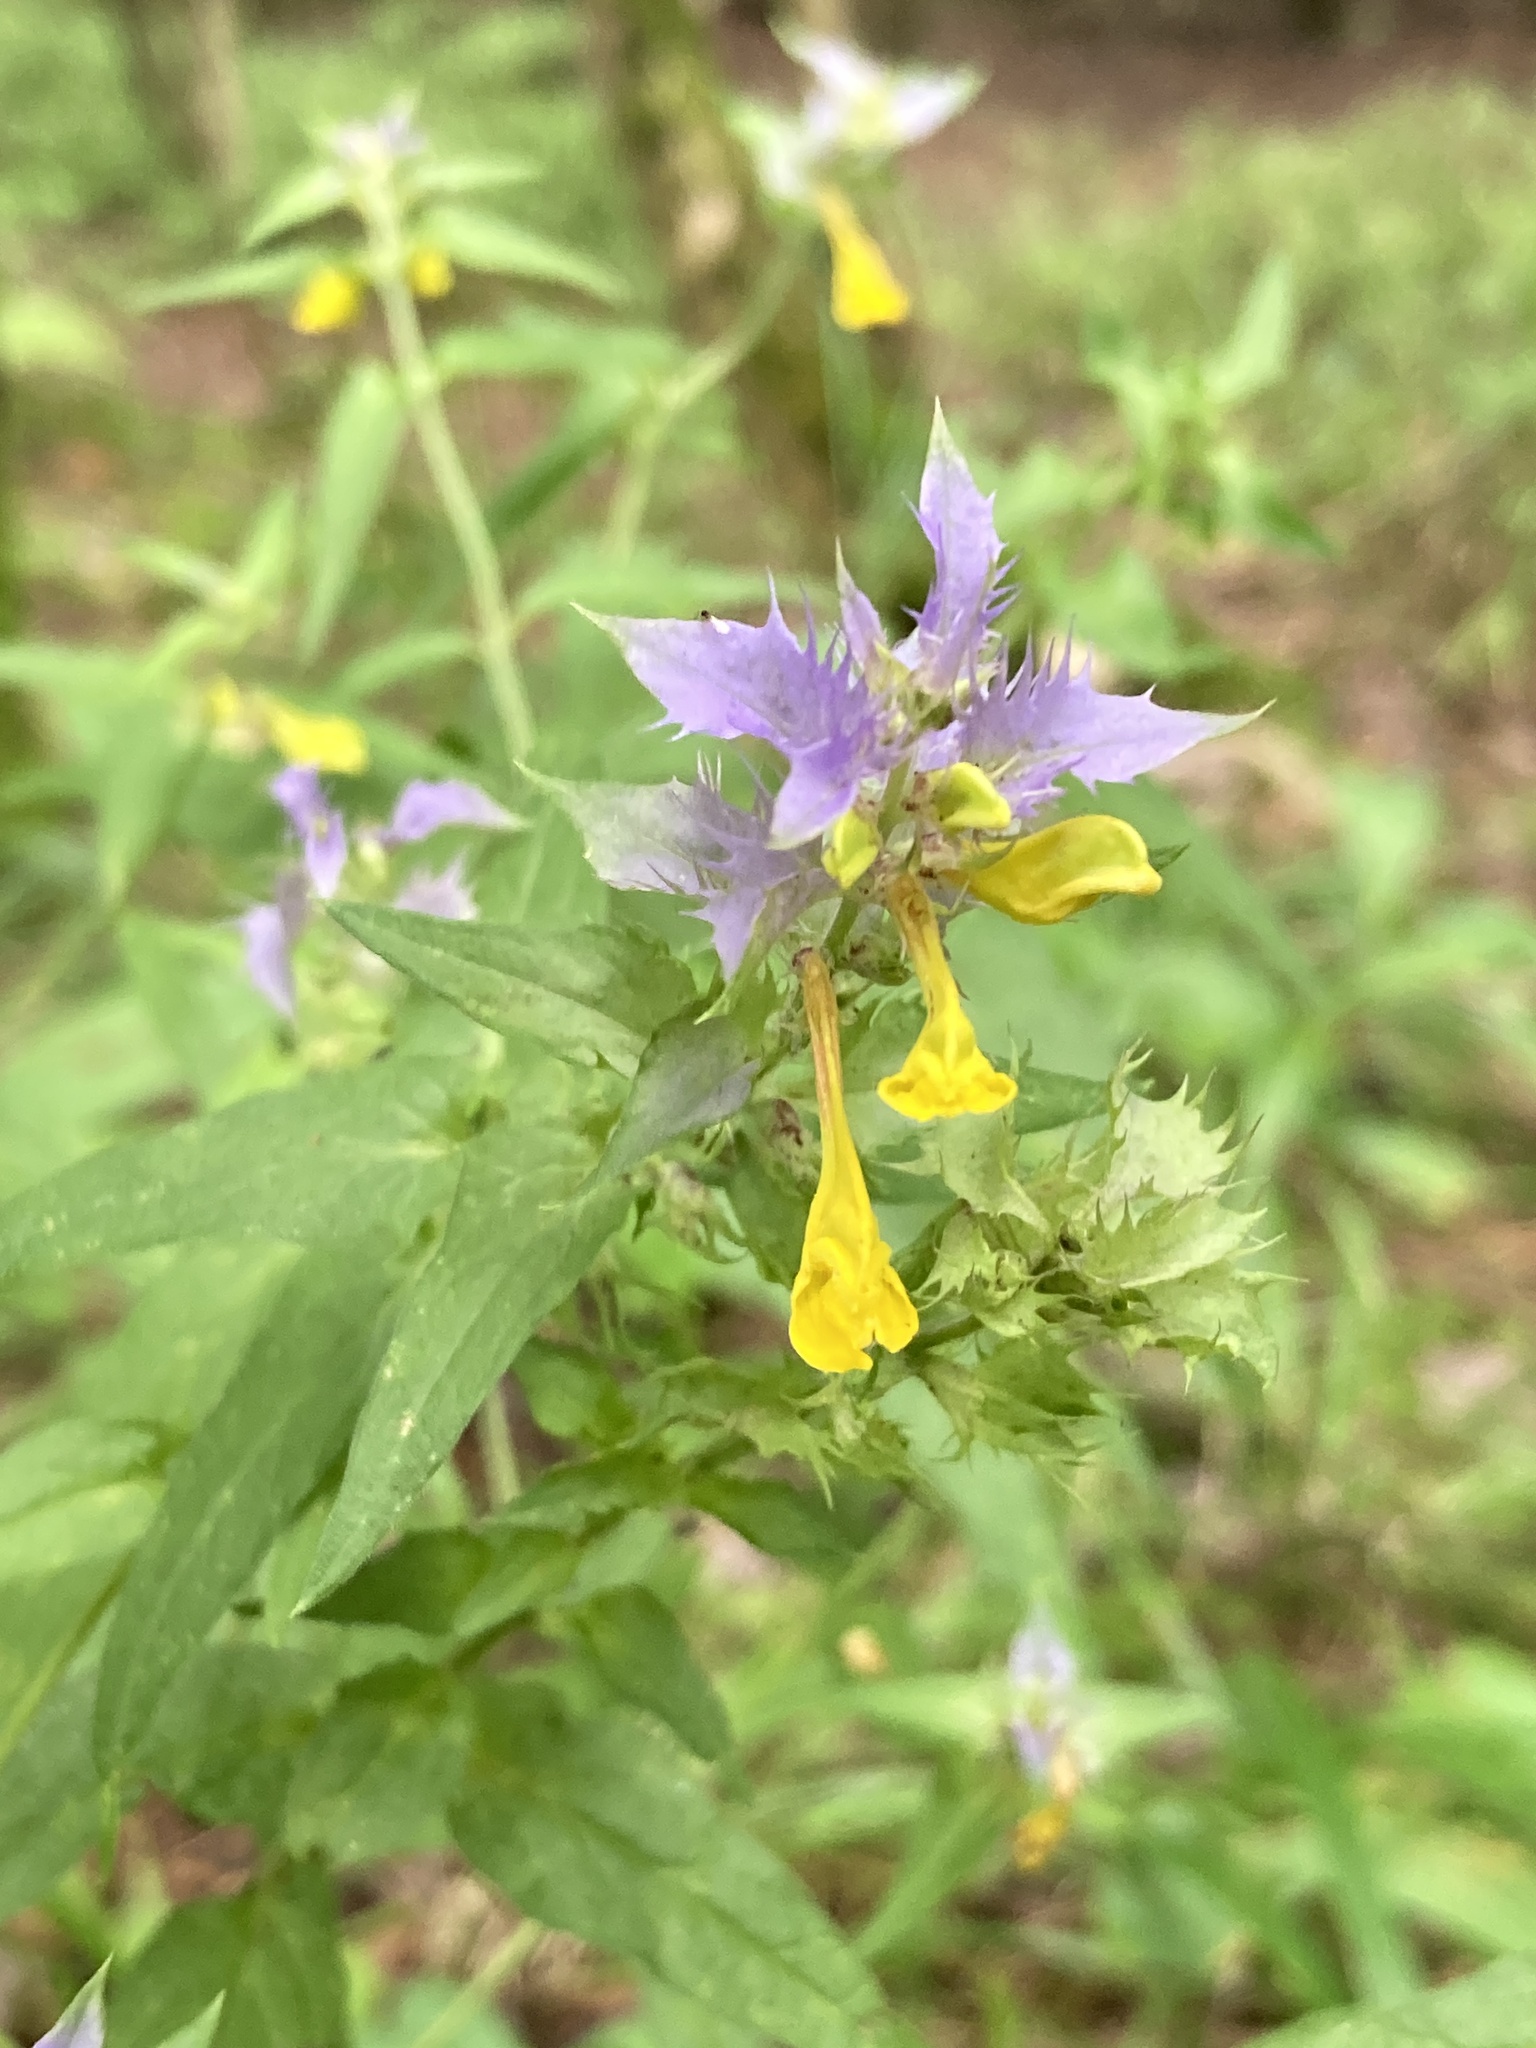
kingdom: Plantae
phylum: Tracheophyta
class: Magnoliopsida
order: Lamiales
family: Orobanchaceae
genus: Melampyrum
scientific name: Melampyrum nemorosum
